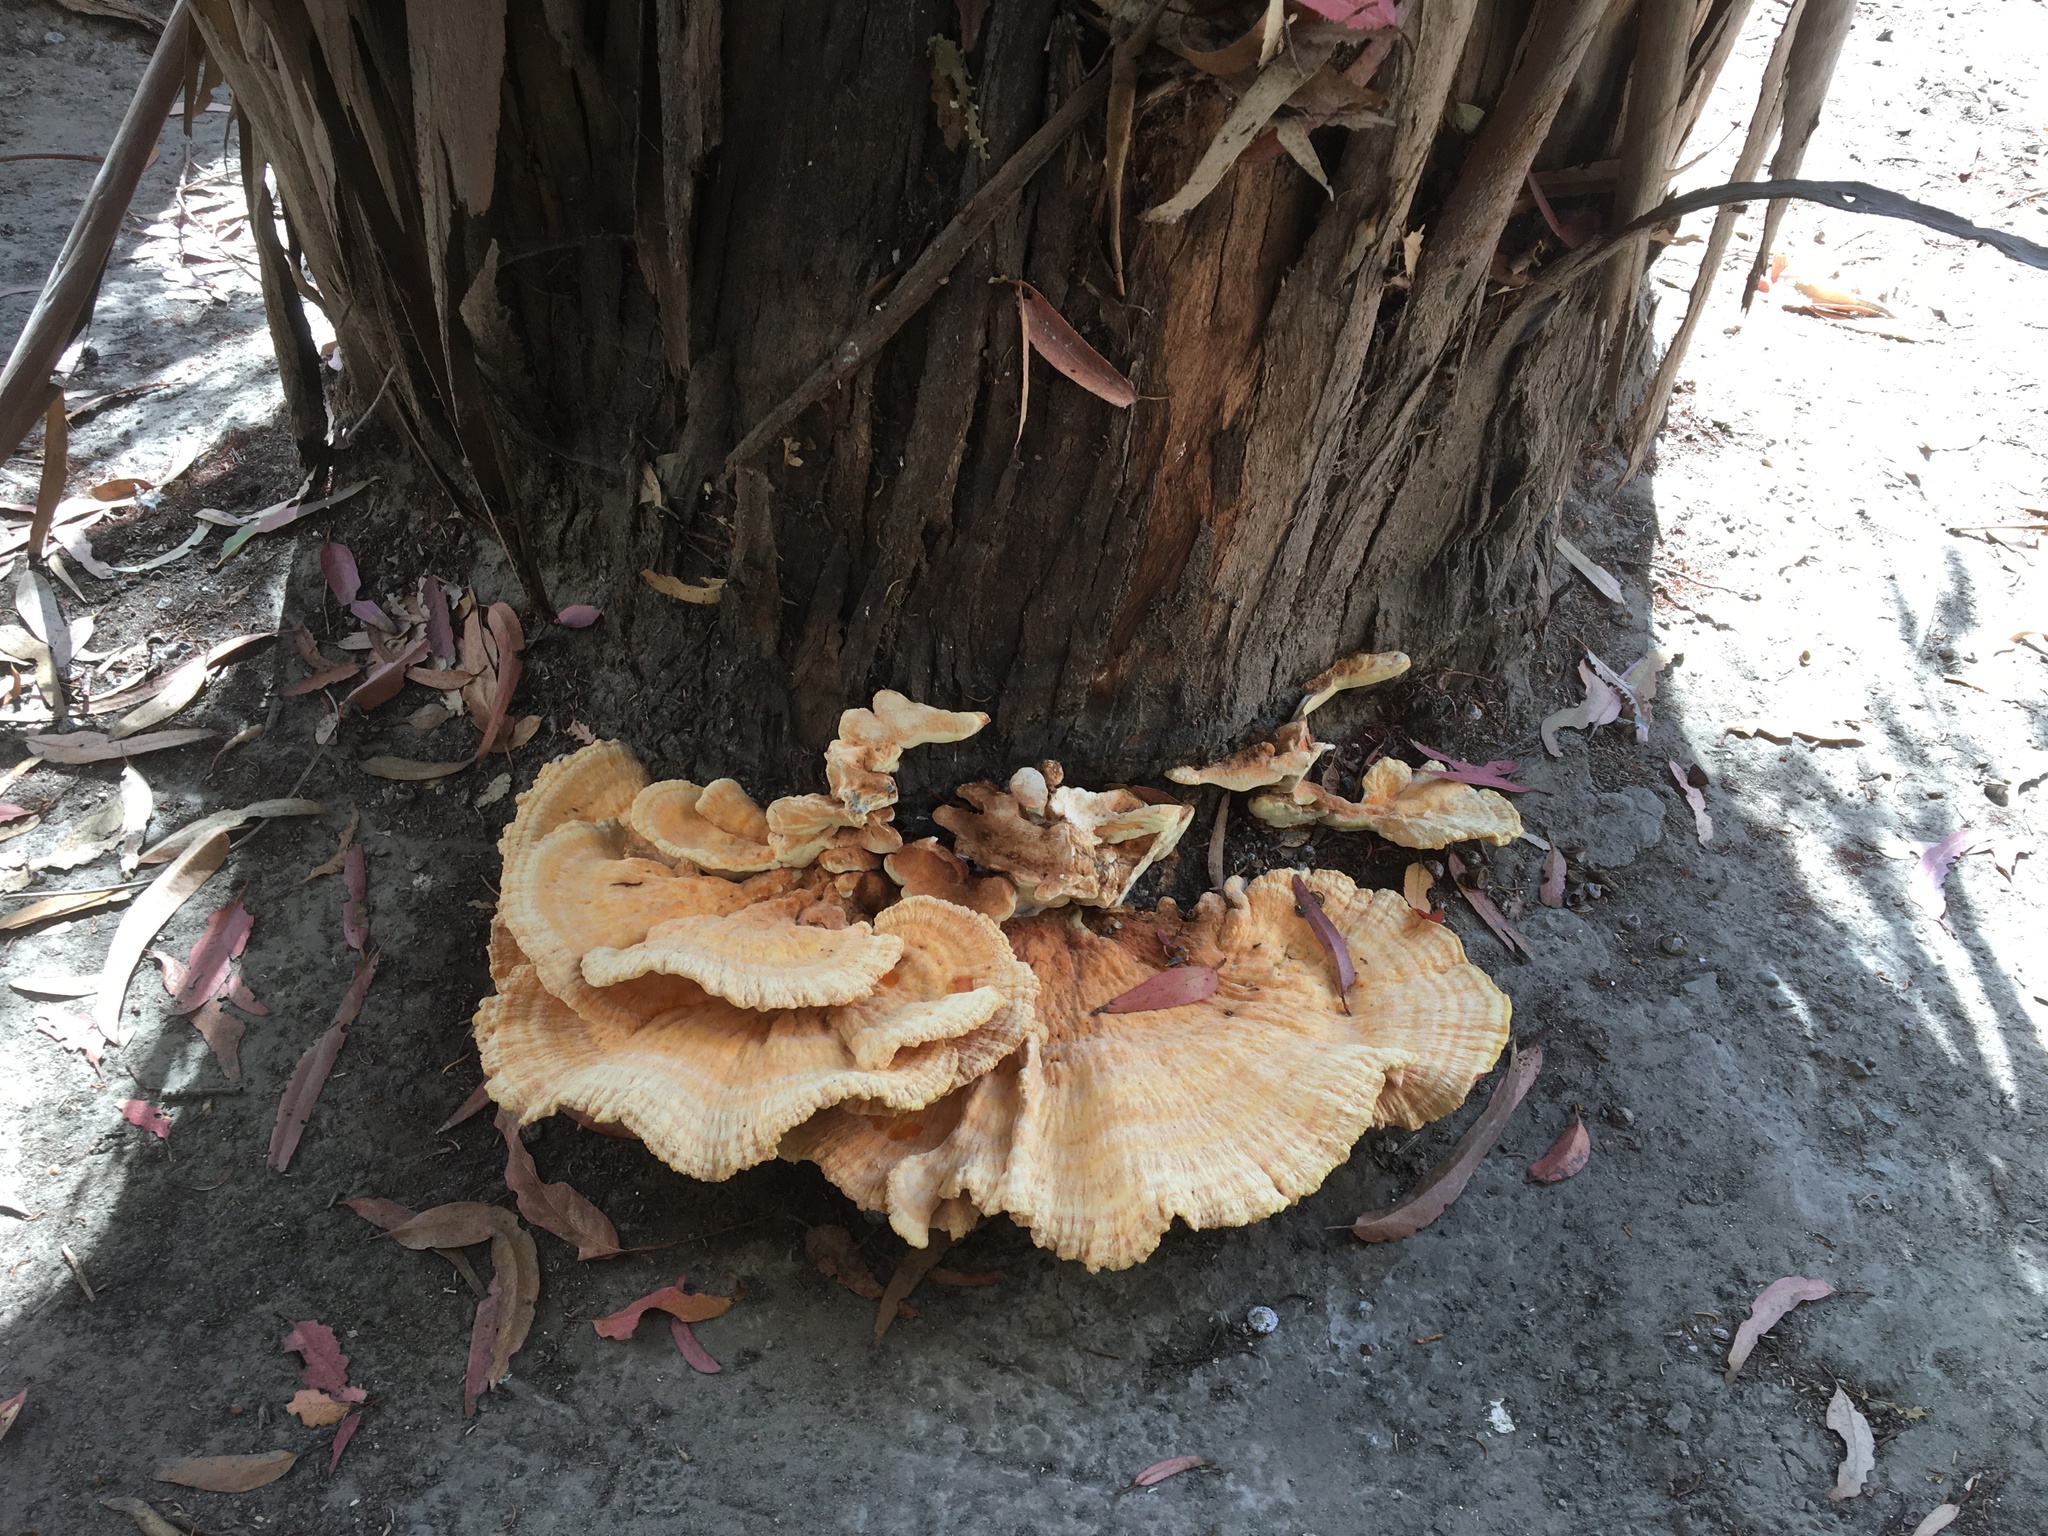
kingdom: Fungi
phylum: Basidiomycota
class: Agaricomycetes
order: Polyporales
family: Laetiporaceae
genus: Laetiporus
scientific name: Laetiporus gilbertsonii
